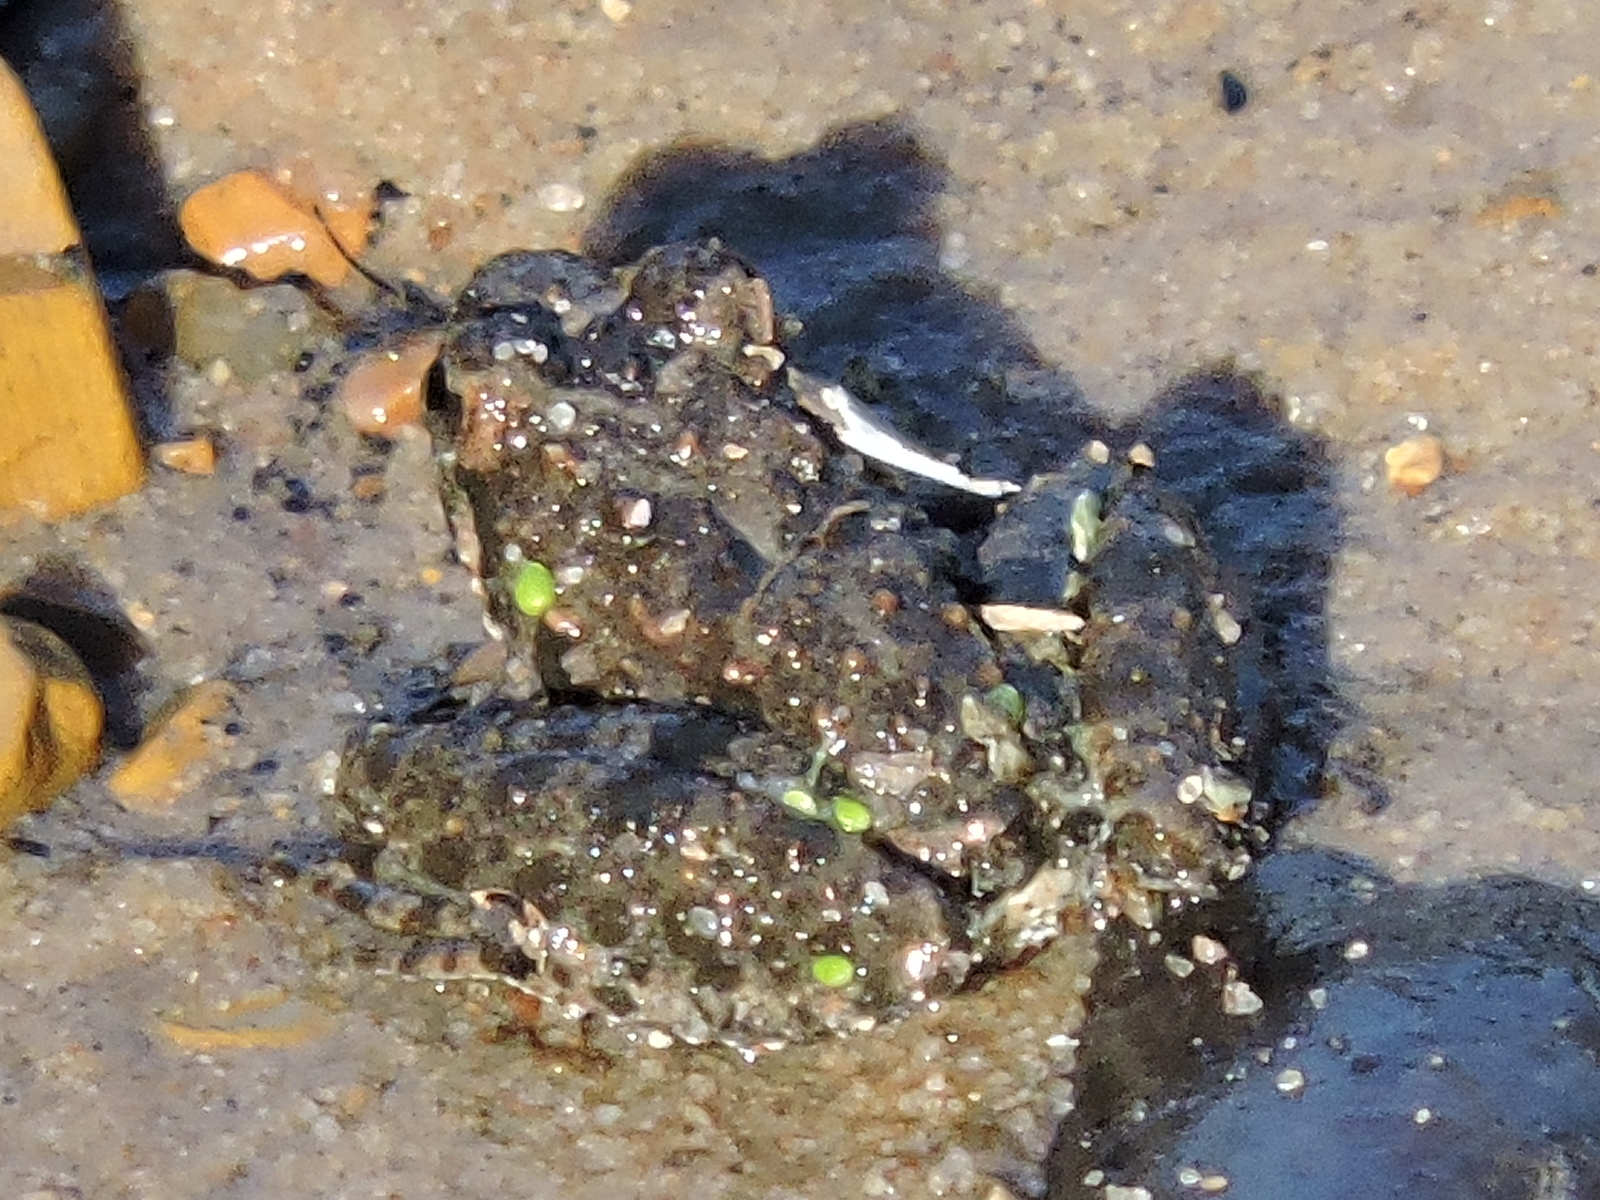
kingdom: Animalia
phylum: Chordata
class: Amphibia
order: Anura
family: Hylidae
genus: Acris
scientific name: Acris blanchardi
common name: Blanchard's cricket frog
